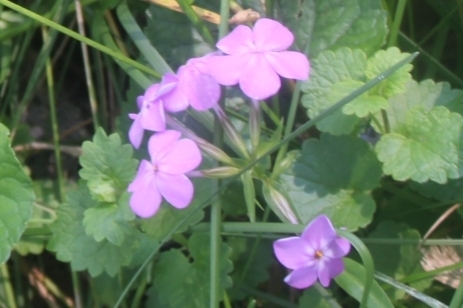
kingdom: Plantae
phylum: Tracheophyta
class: Magnoliopsida
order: Ericales
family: Polemoniaceae
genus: Phlox
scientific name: Phlox glaberrima
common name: Smooth phlox
